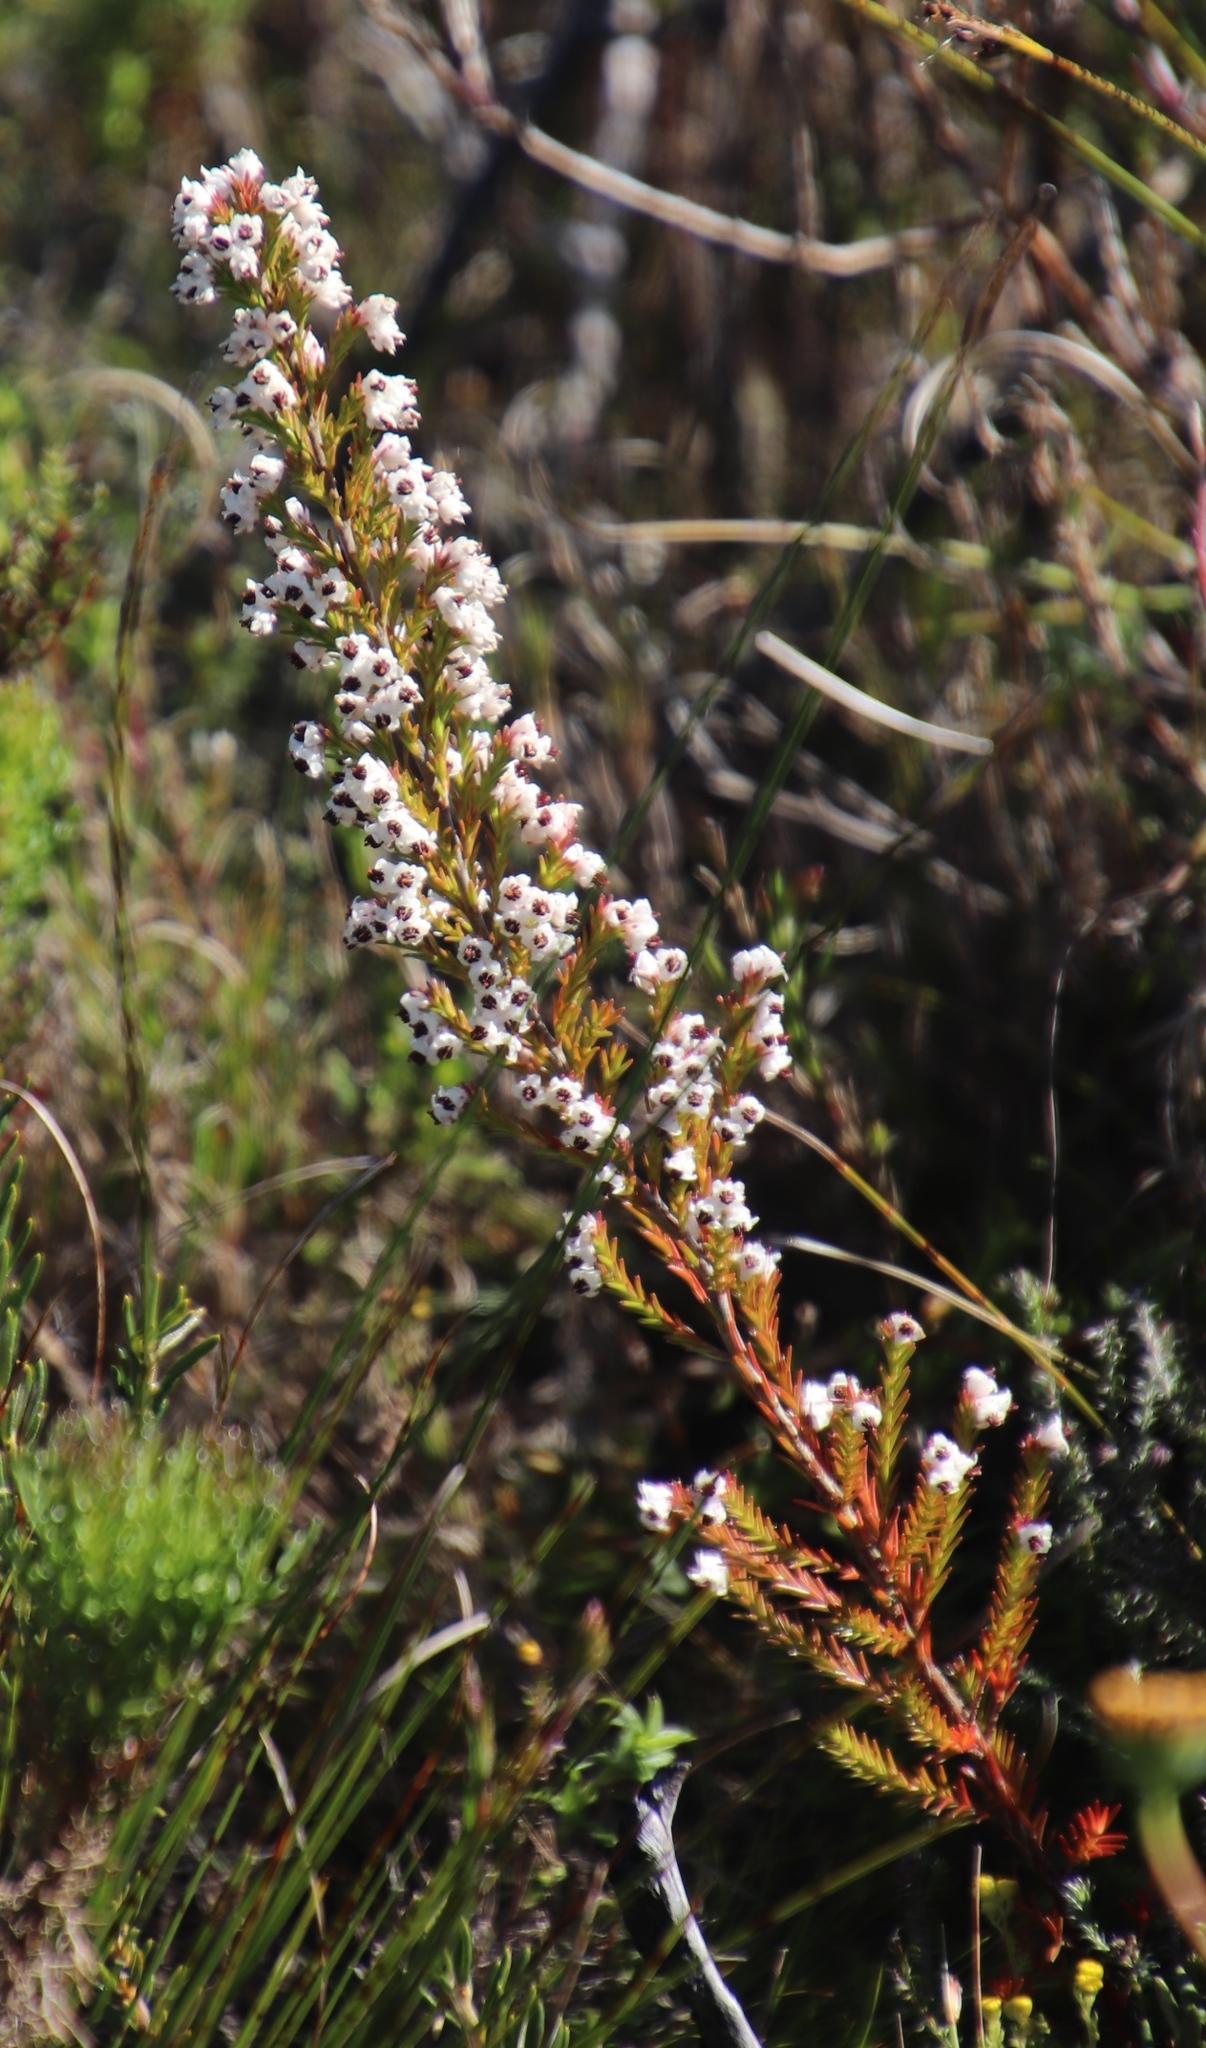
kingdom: Plantae
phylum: Tracheophyta
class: Magnoliopsida
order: Ericales
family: Ericaceae
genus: Erica
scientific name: Erica calycina
